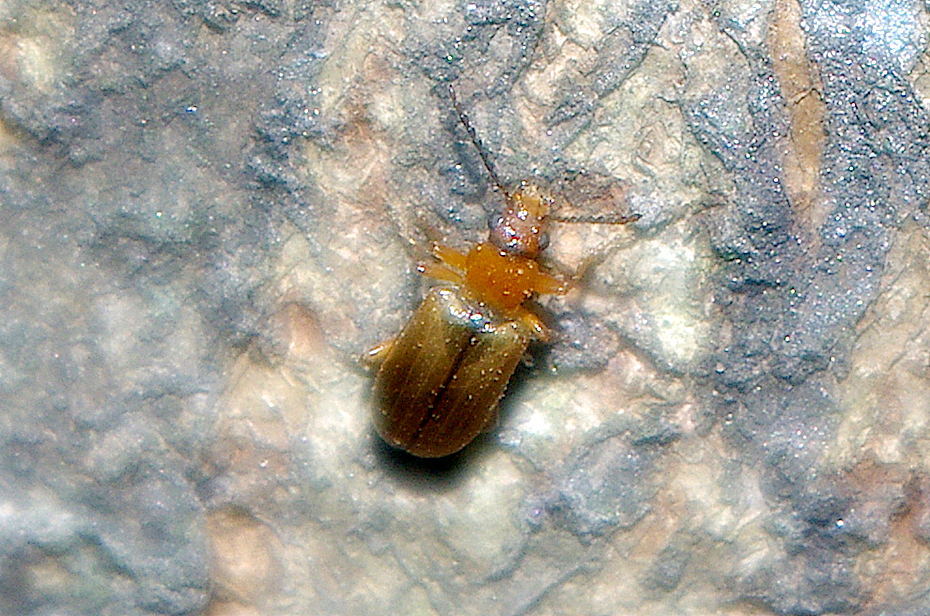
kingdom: Animalia
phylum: Arthropoda
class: Insecta
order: Coleoptera
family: Orsodacnidae
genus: Orsodacne
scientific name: Orsodacne cerasi
